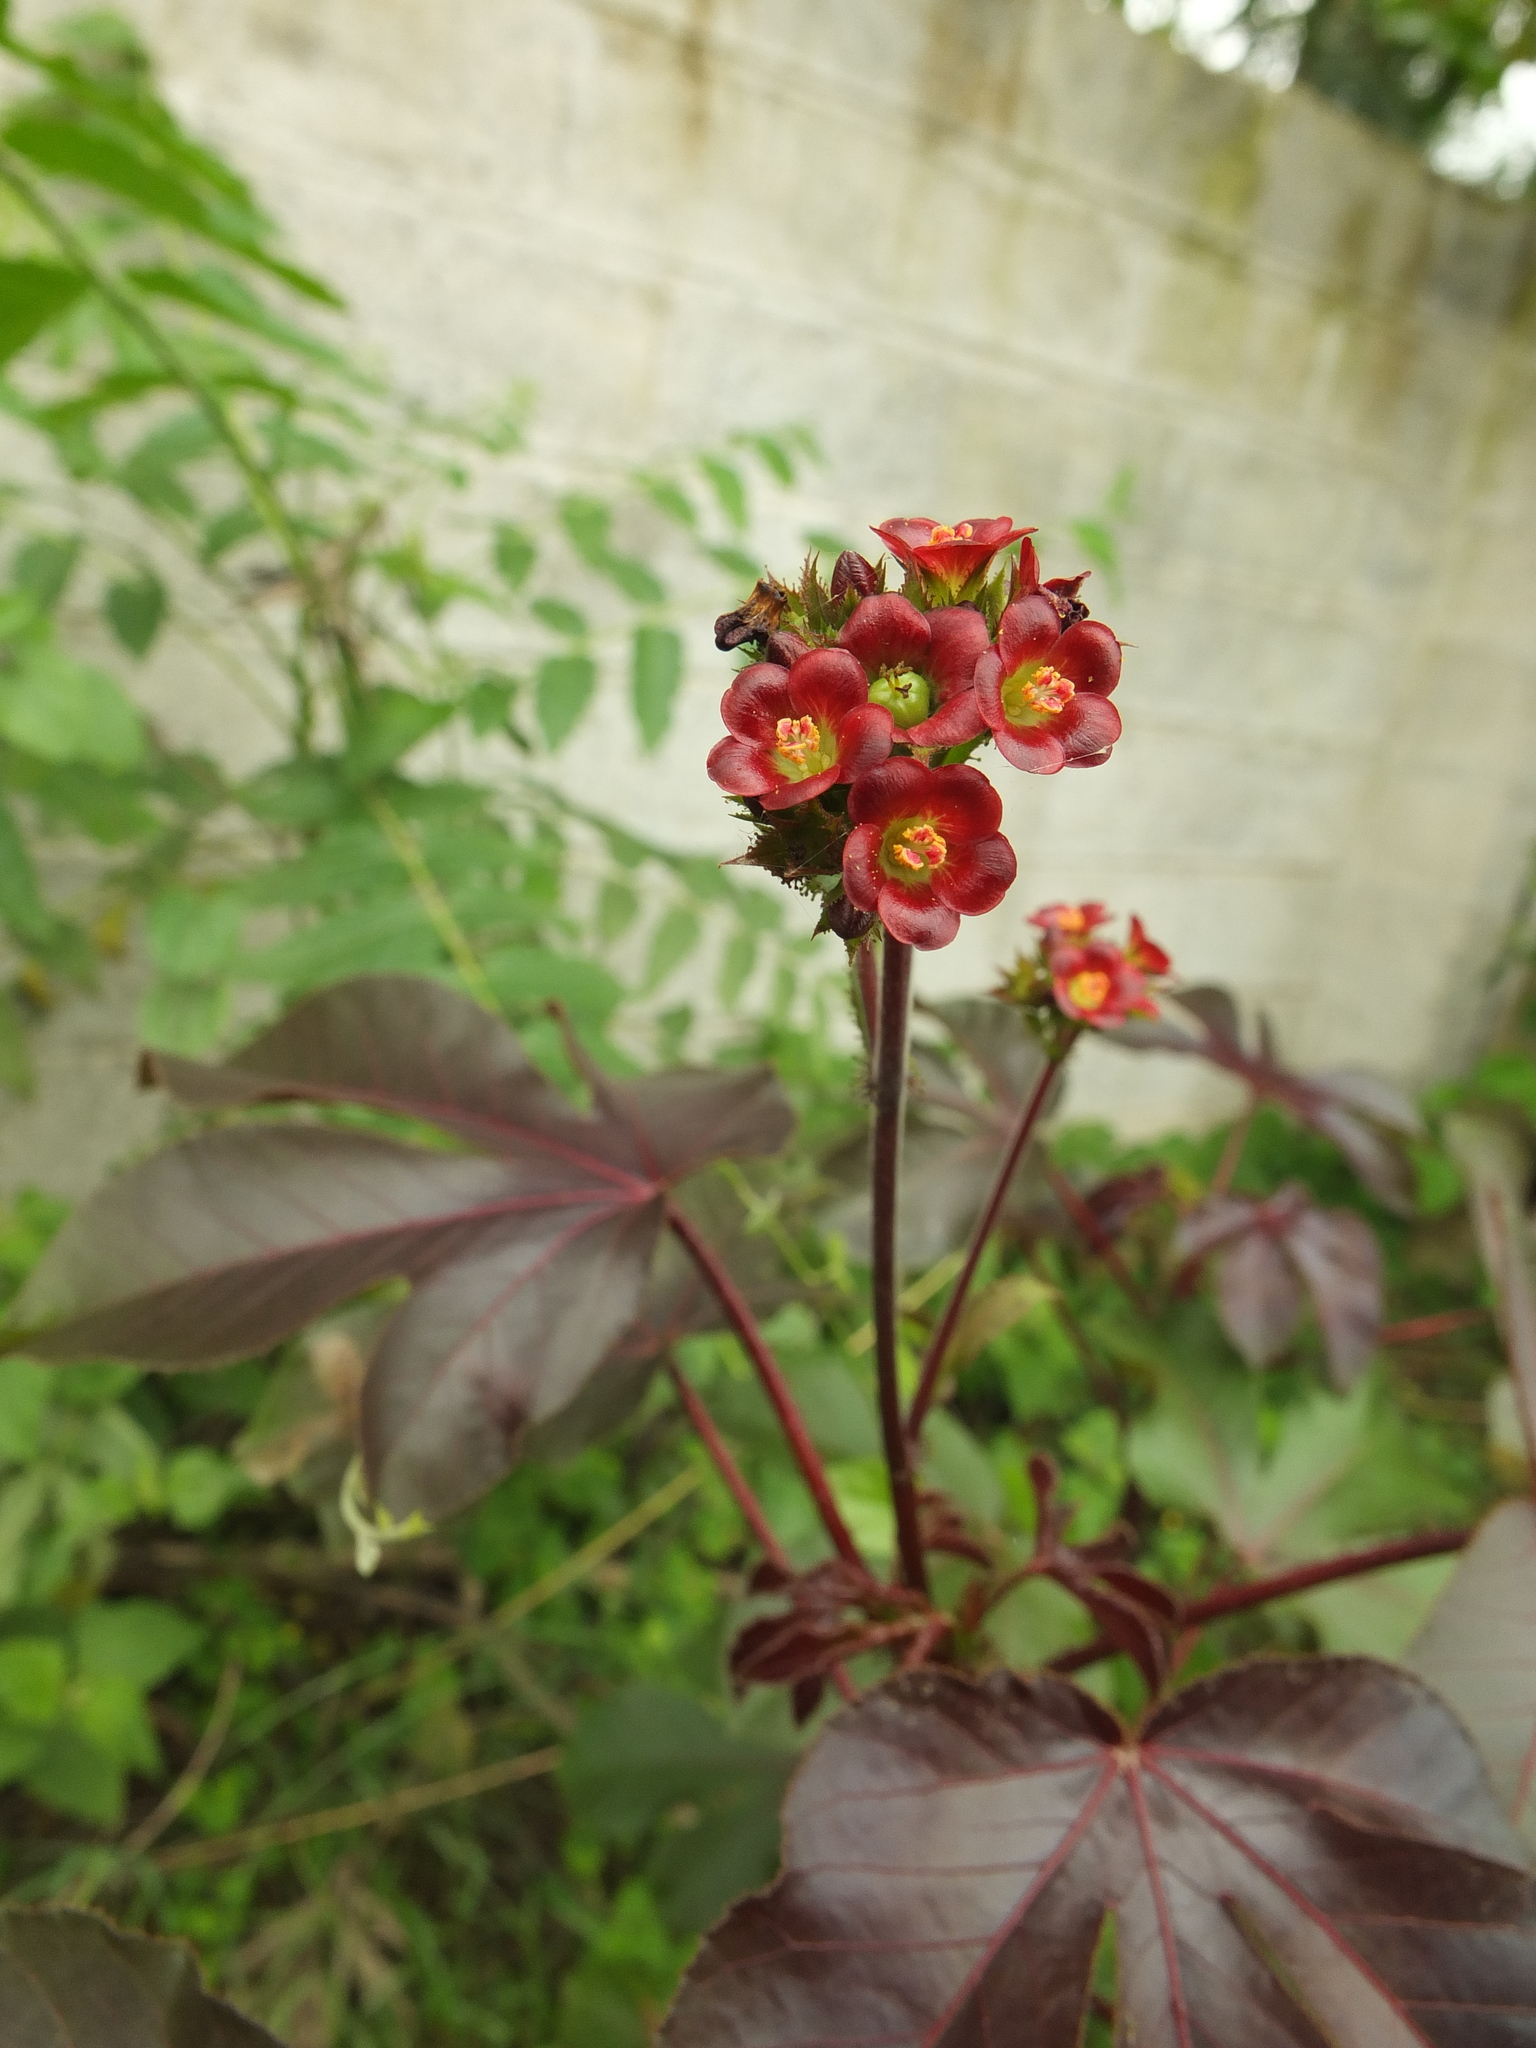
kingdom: Plantae
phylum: Tracheophyta
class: Magnoliopsida
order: Malpighiales
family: Euphorbiaceae
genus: Jatropha
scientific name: Jatropha gossypiifolia
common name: Bellyache bush
